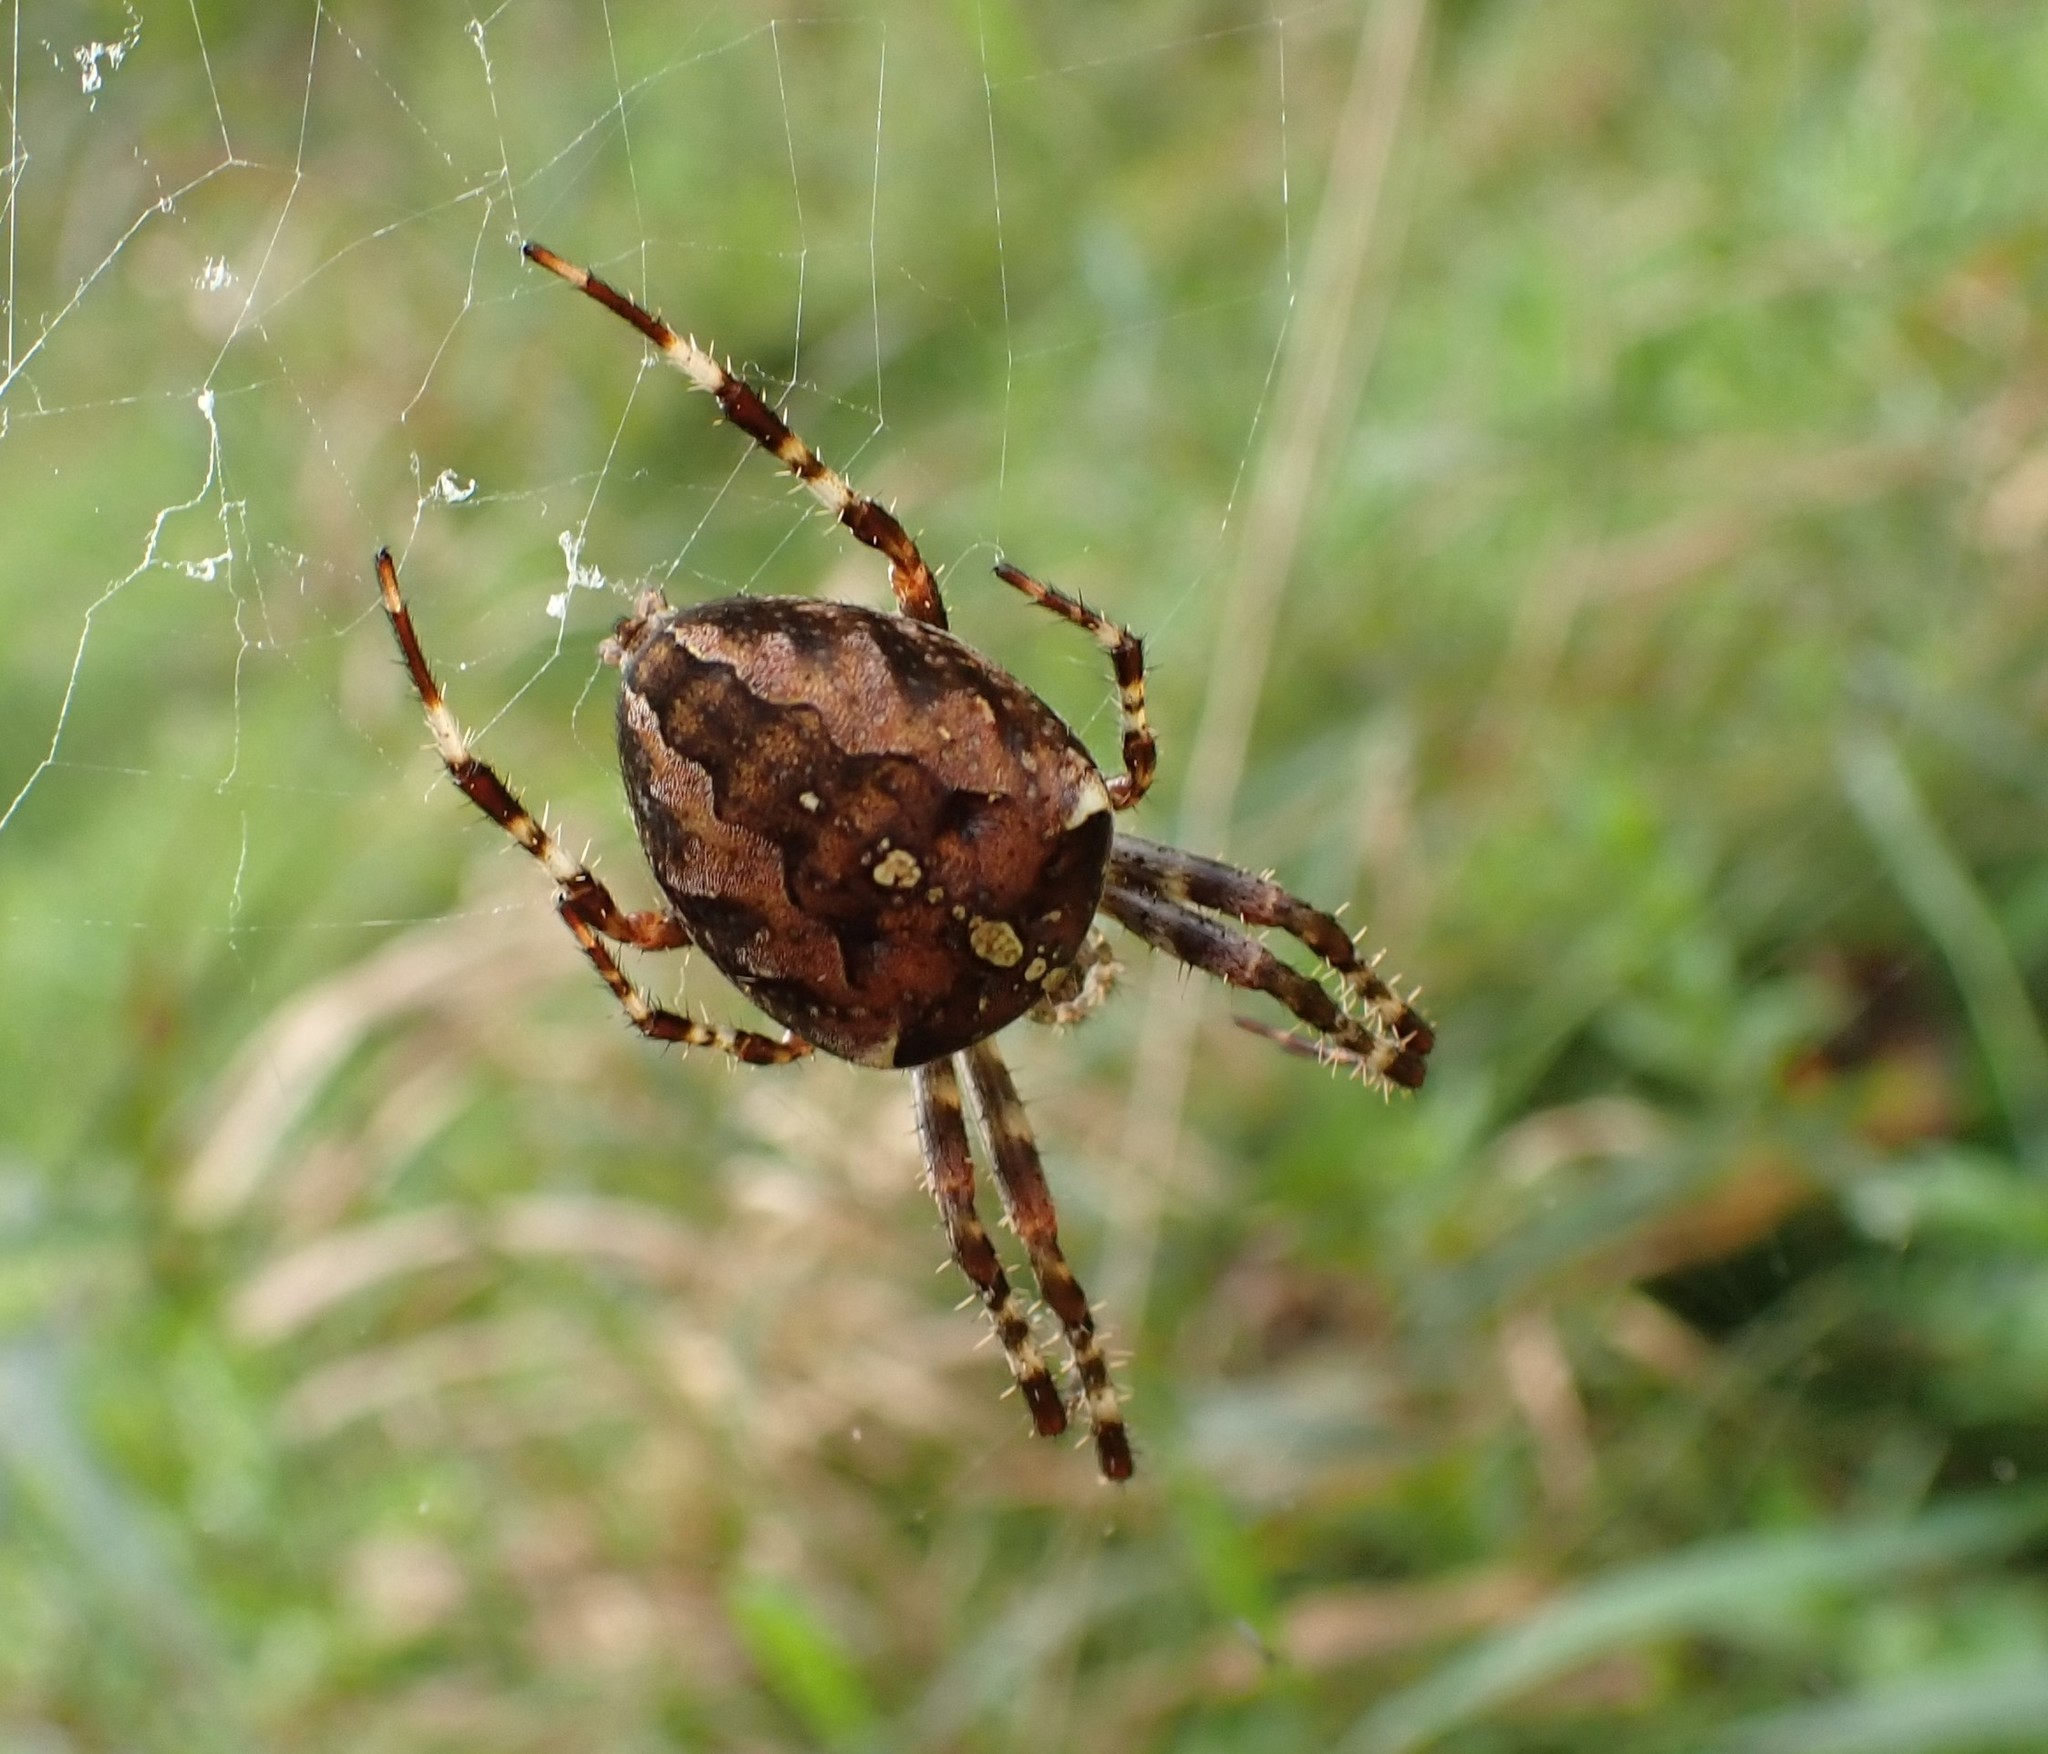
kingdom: Animalia
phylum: Arthropoda
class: Arachnida
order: Araneae
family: Araneidae
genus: Araneus
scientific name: Araneus diadematus
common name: Cross orbweaver
